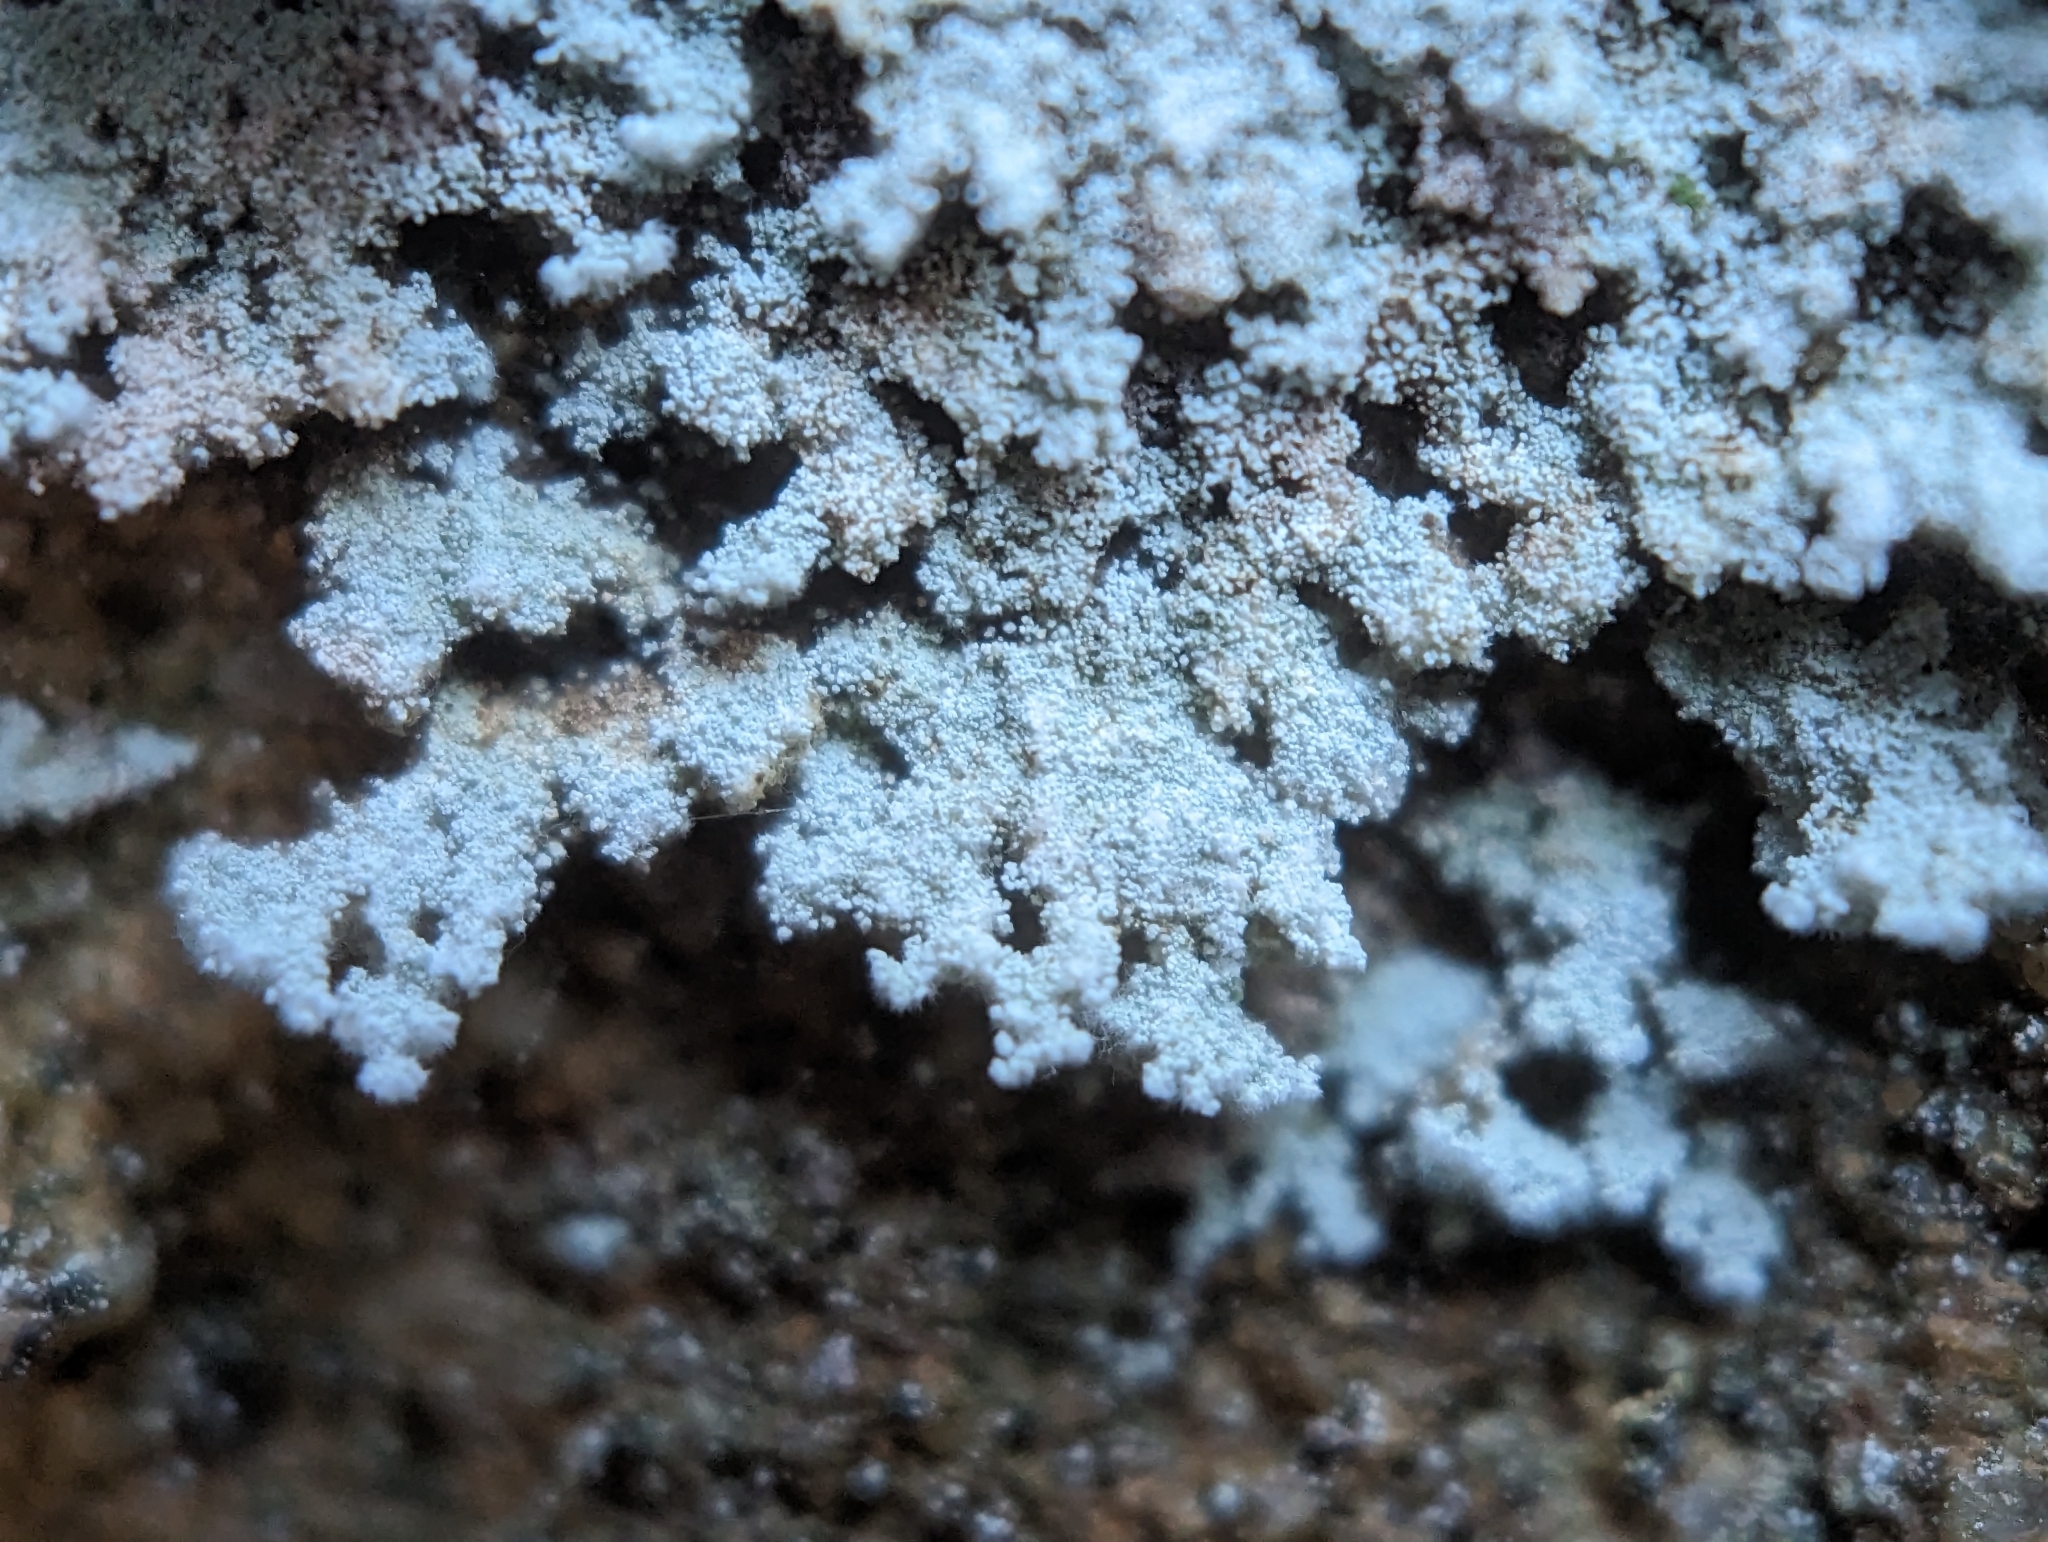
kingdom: Fungi
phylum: Ascomycota
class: Lecanoromycetes
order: Lecanorales
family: Stereocaulaceae
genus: Lepraria
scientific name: Lepraria cryophila
